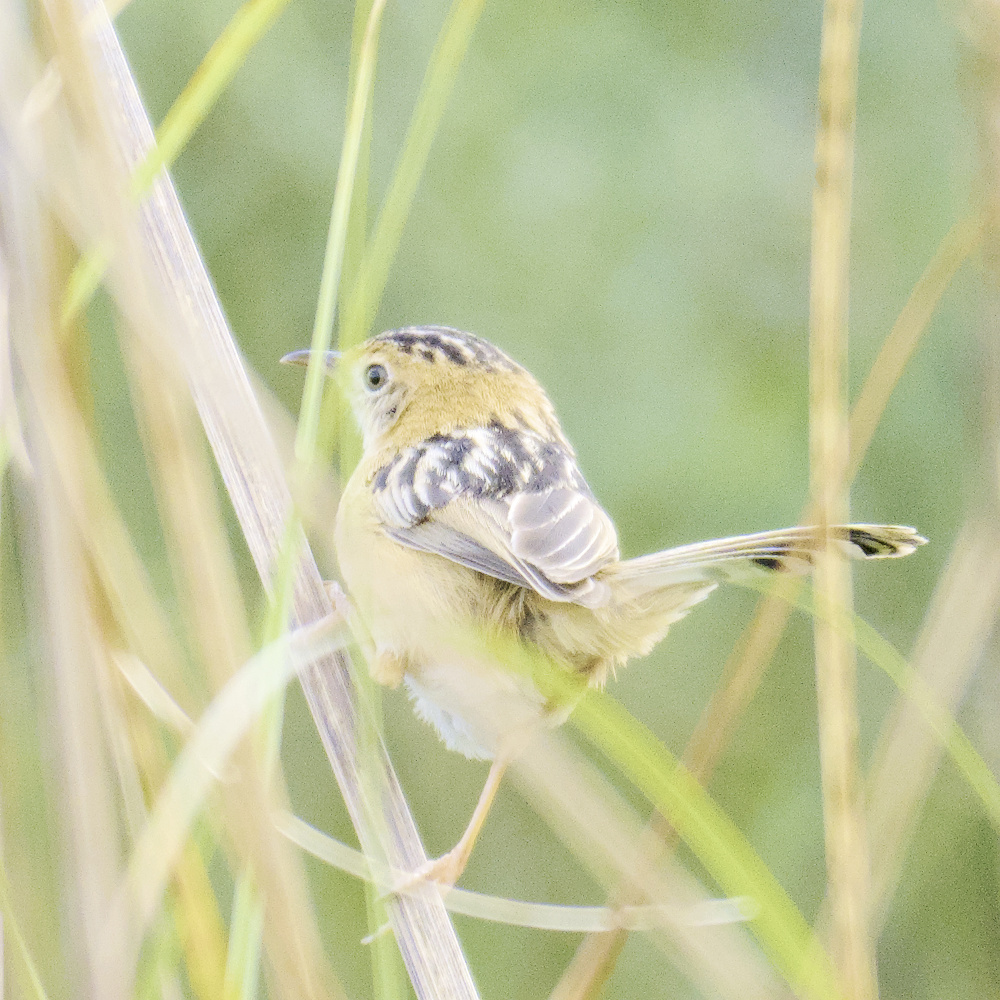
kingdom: Animalia
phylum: Chordata
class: Aves
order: Passeriformes
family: Cisticolidae
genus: Cisticola
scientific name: Cisticola exilis
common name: Golden-headed cisticola
